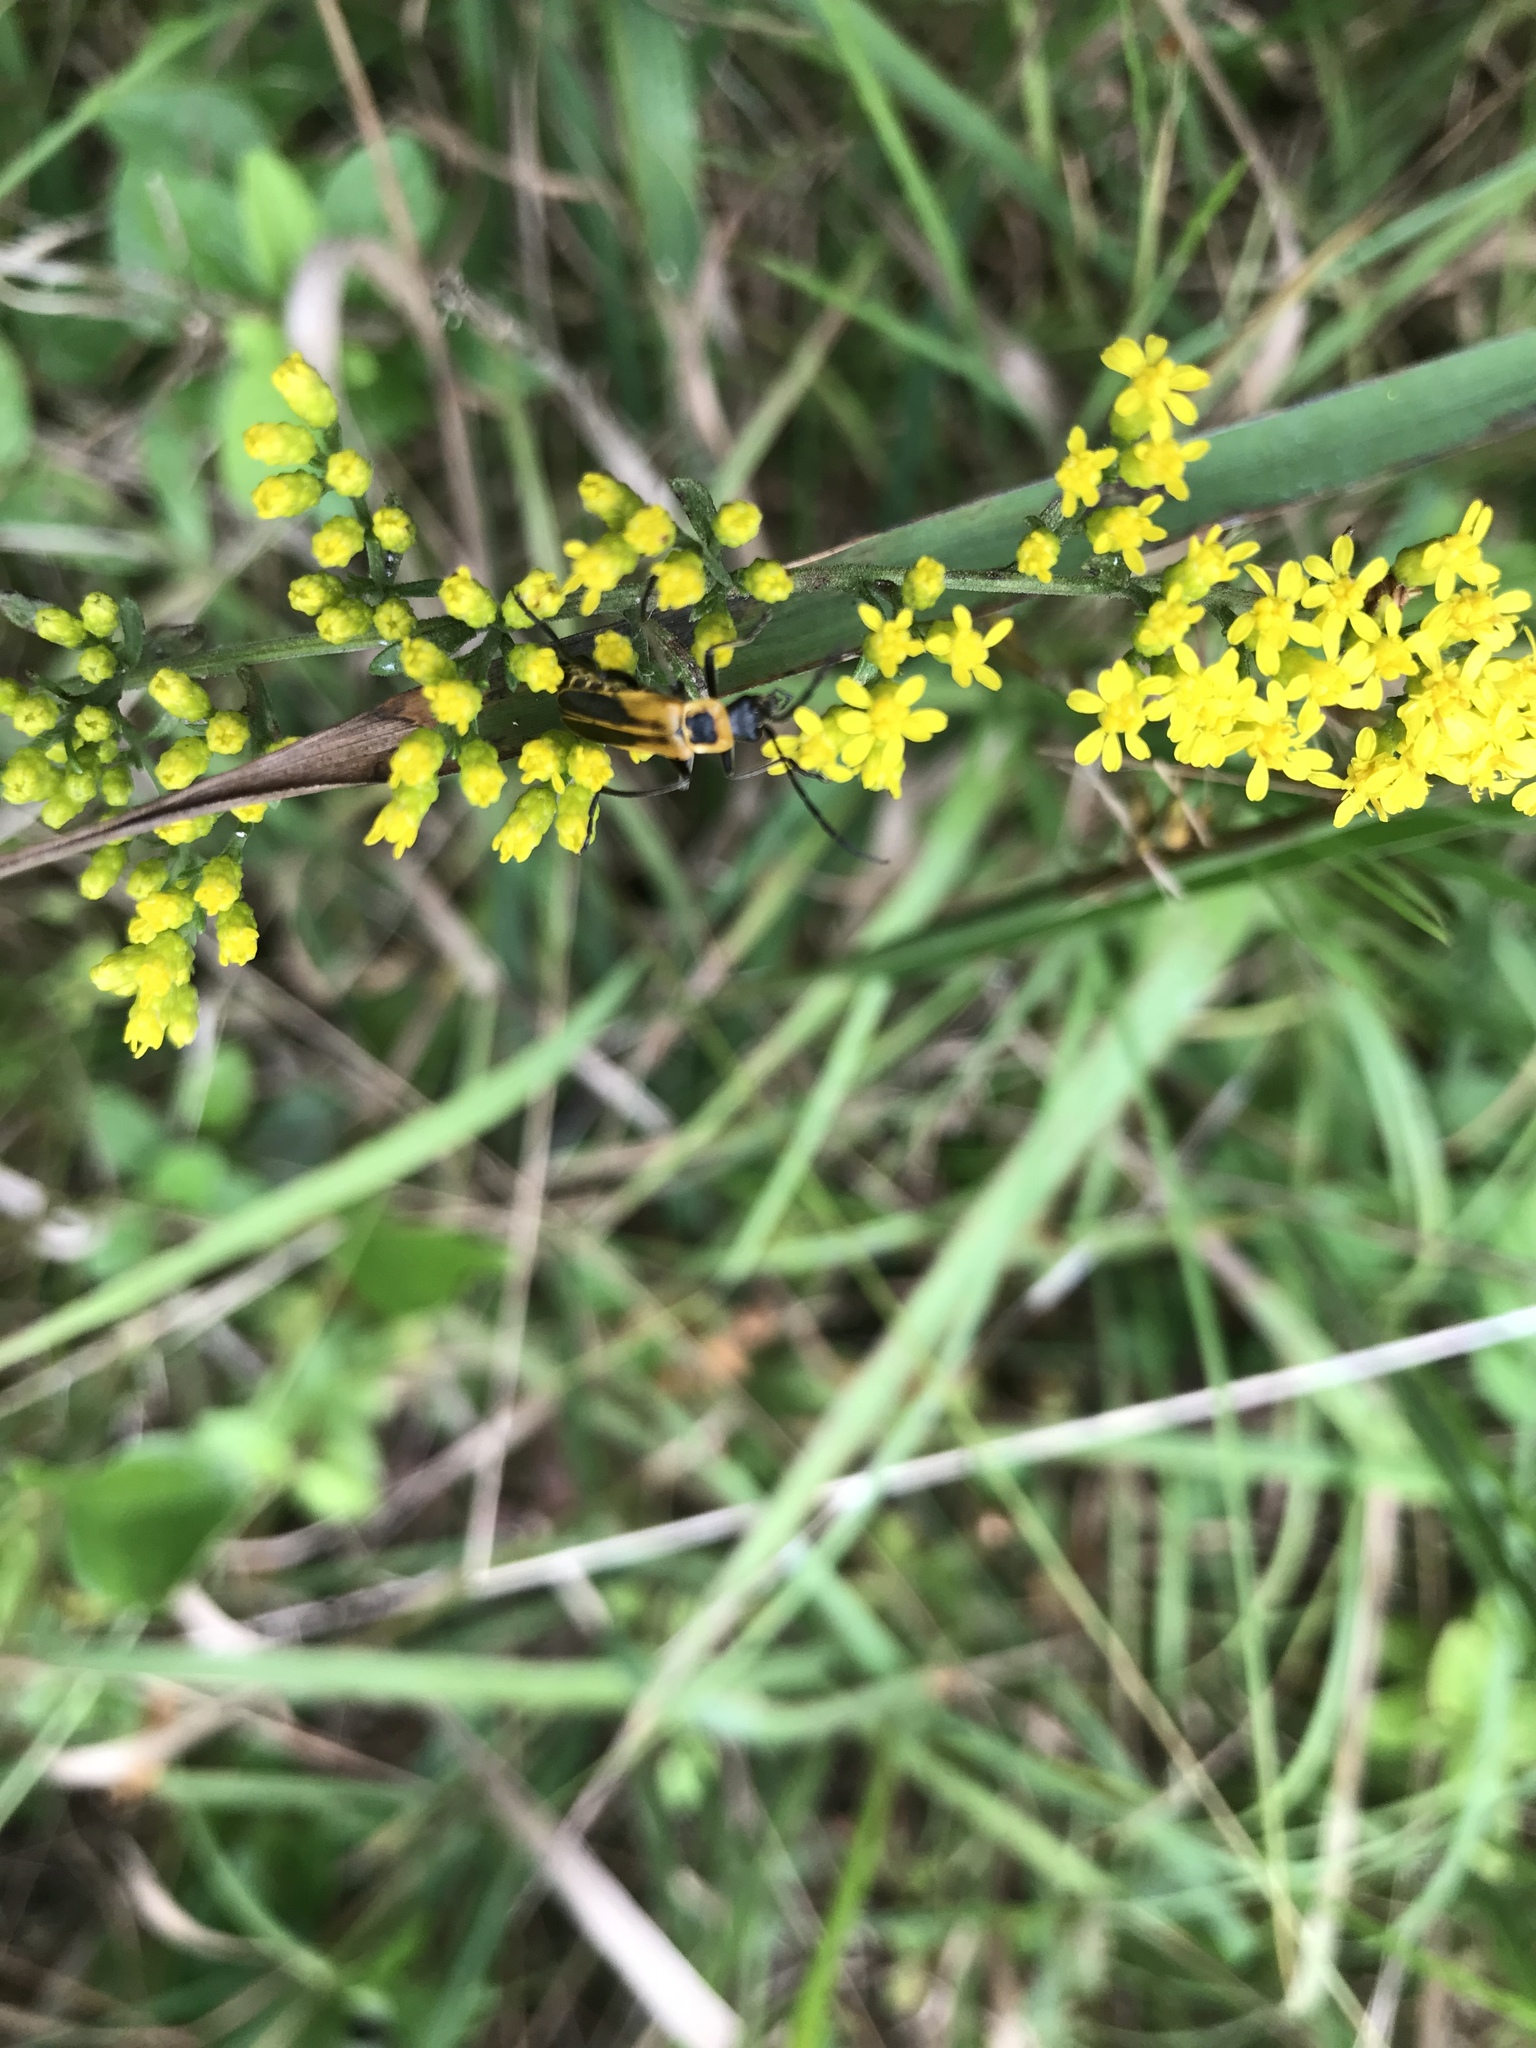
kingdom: Animalia
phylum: Arthropoda
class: Insecta
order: Coleoptera
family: Cantharidae
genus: Chauliognathus
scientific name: Chauliognathus pensylvanicus
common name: Goldenrod soldier beetle
